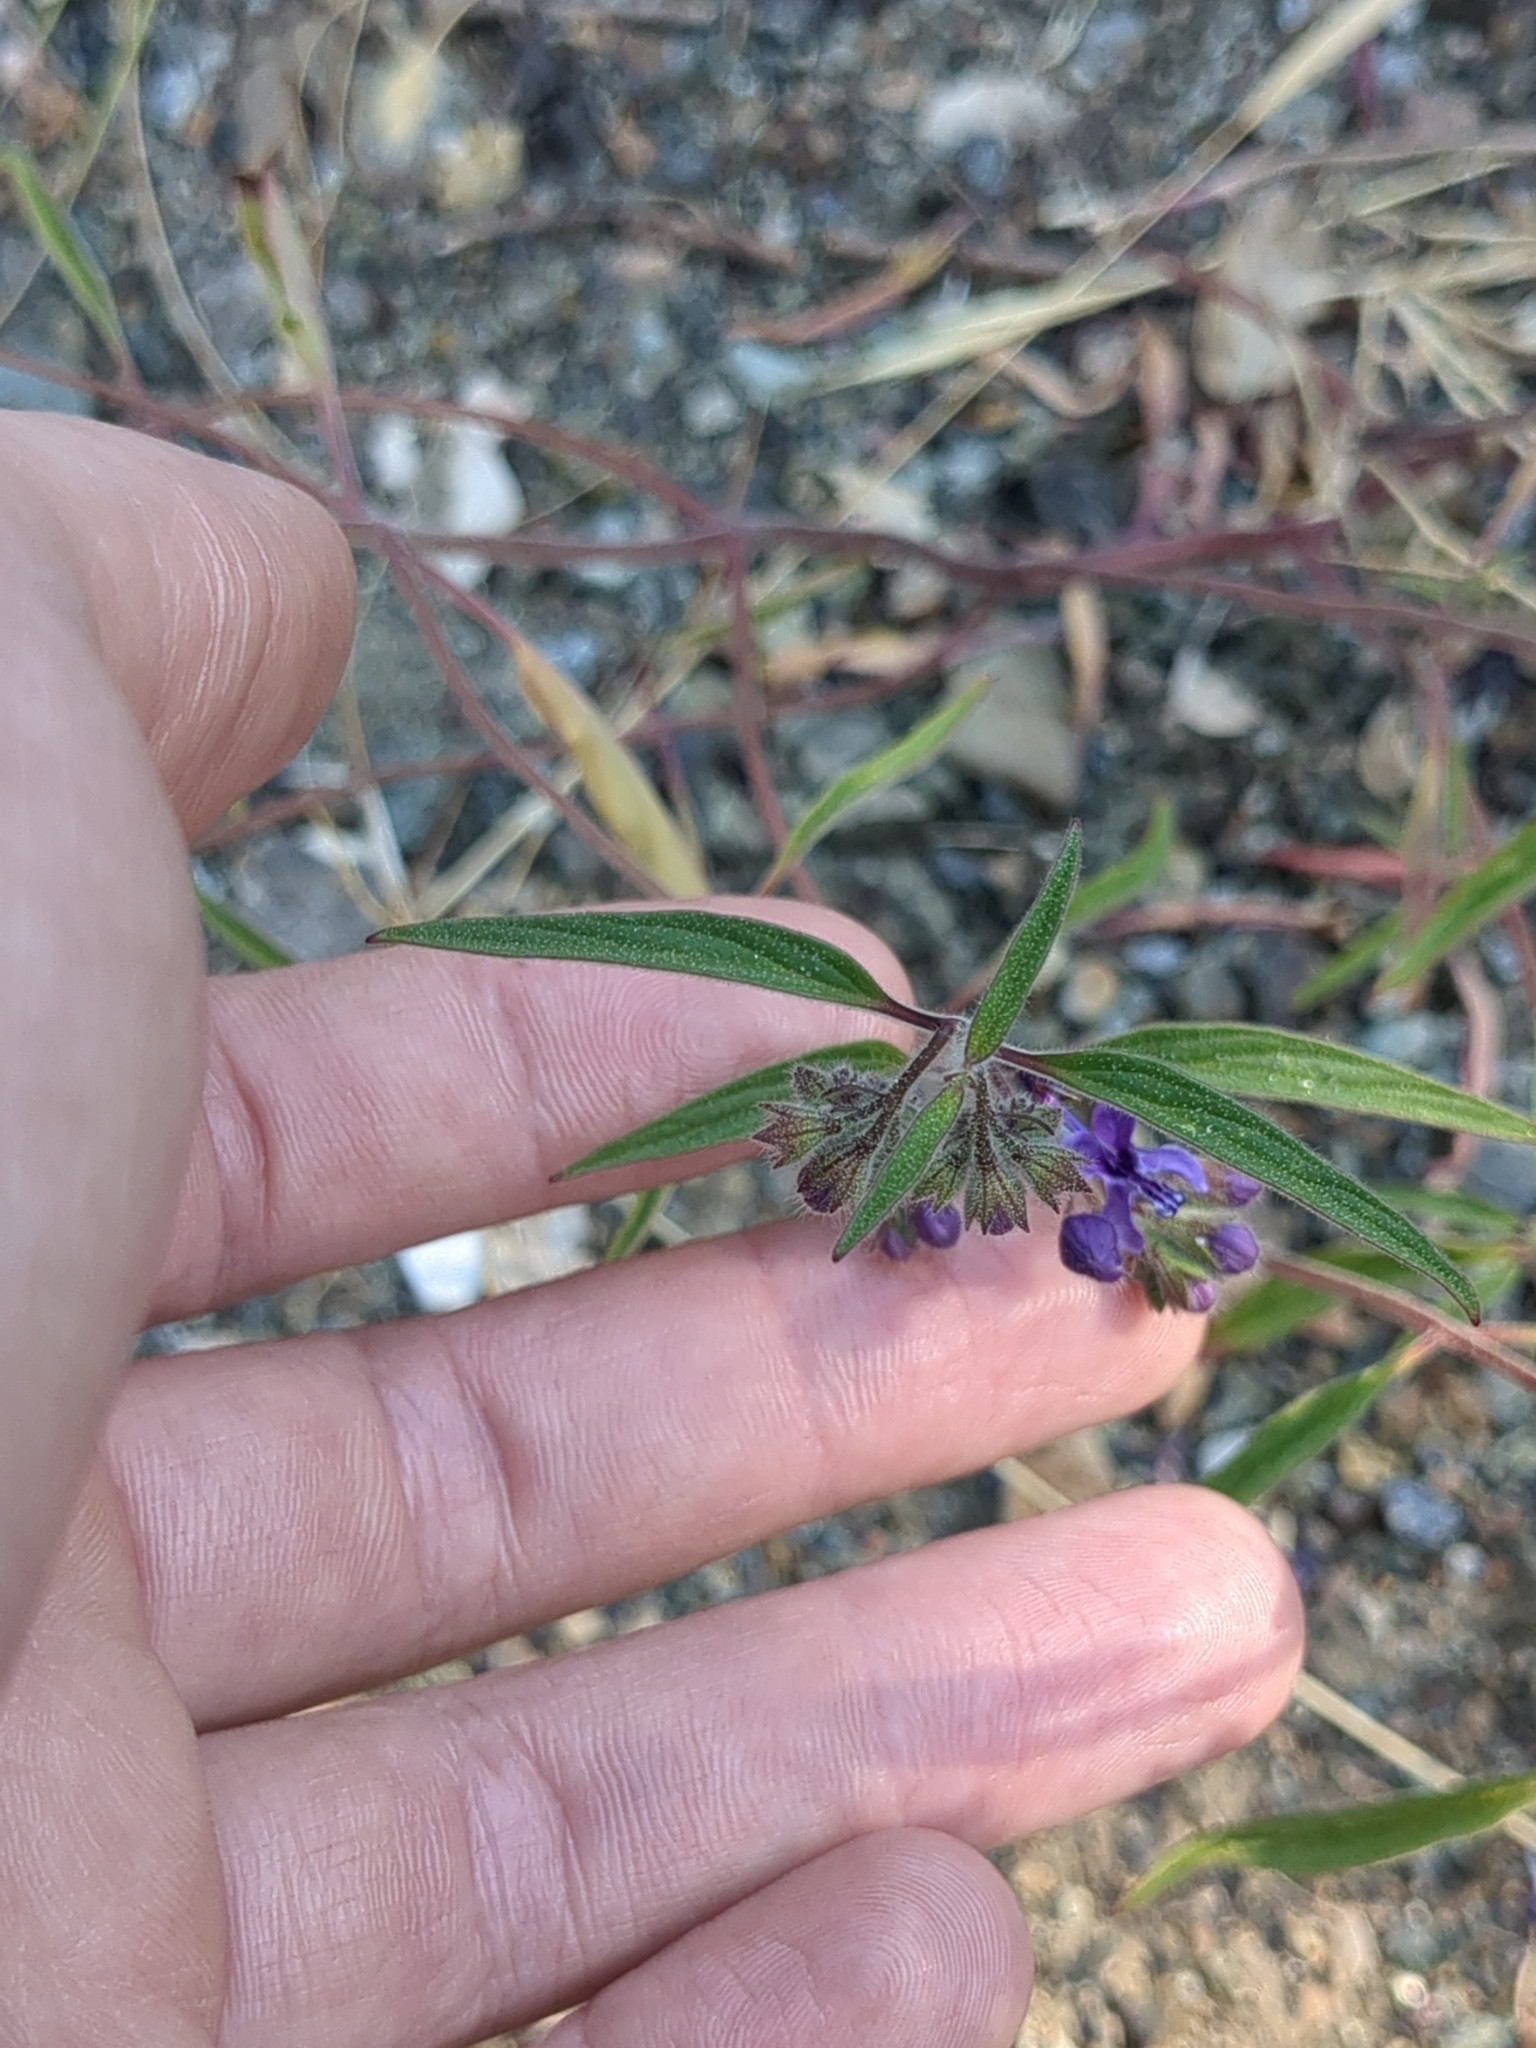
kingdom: Plantae
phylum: Tracheophyta
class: Magnoliopsida
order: Lamiales
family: Lamiaceae
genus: Trichostema
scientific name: Trichostema laxum
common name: Turpentine weed
